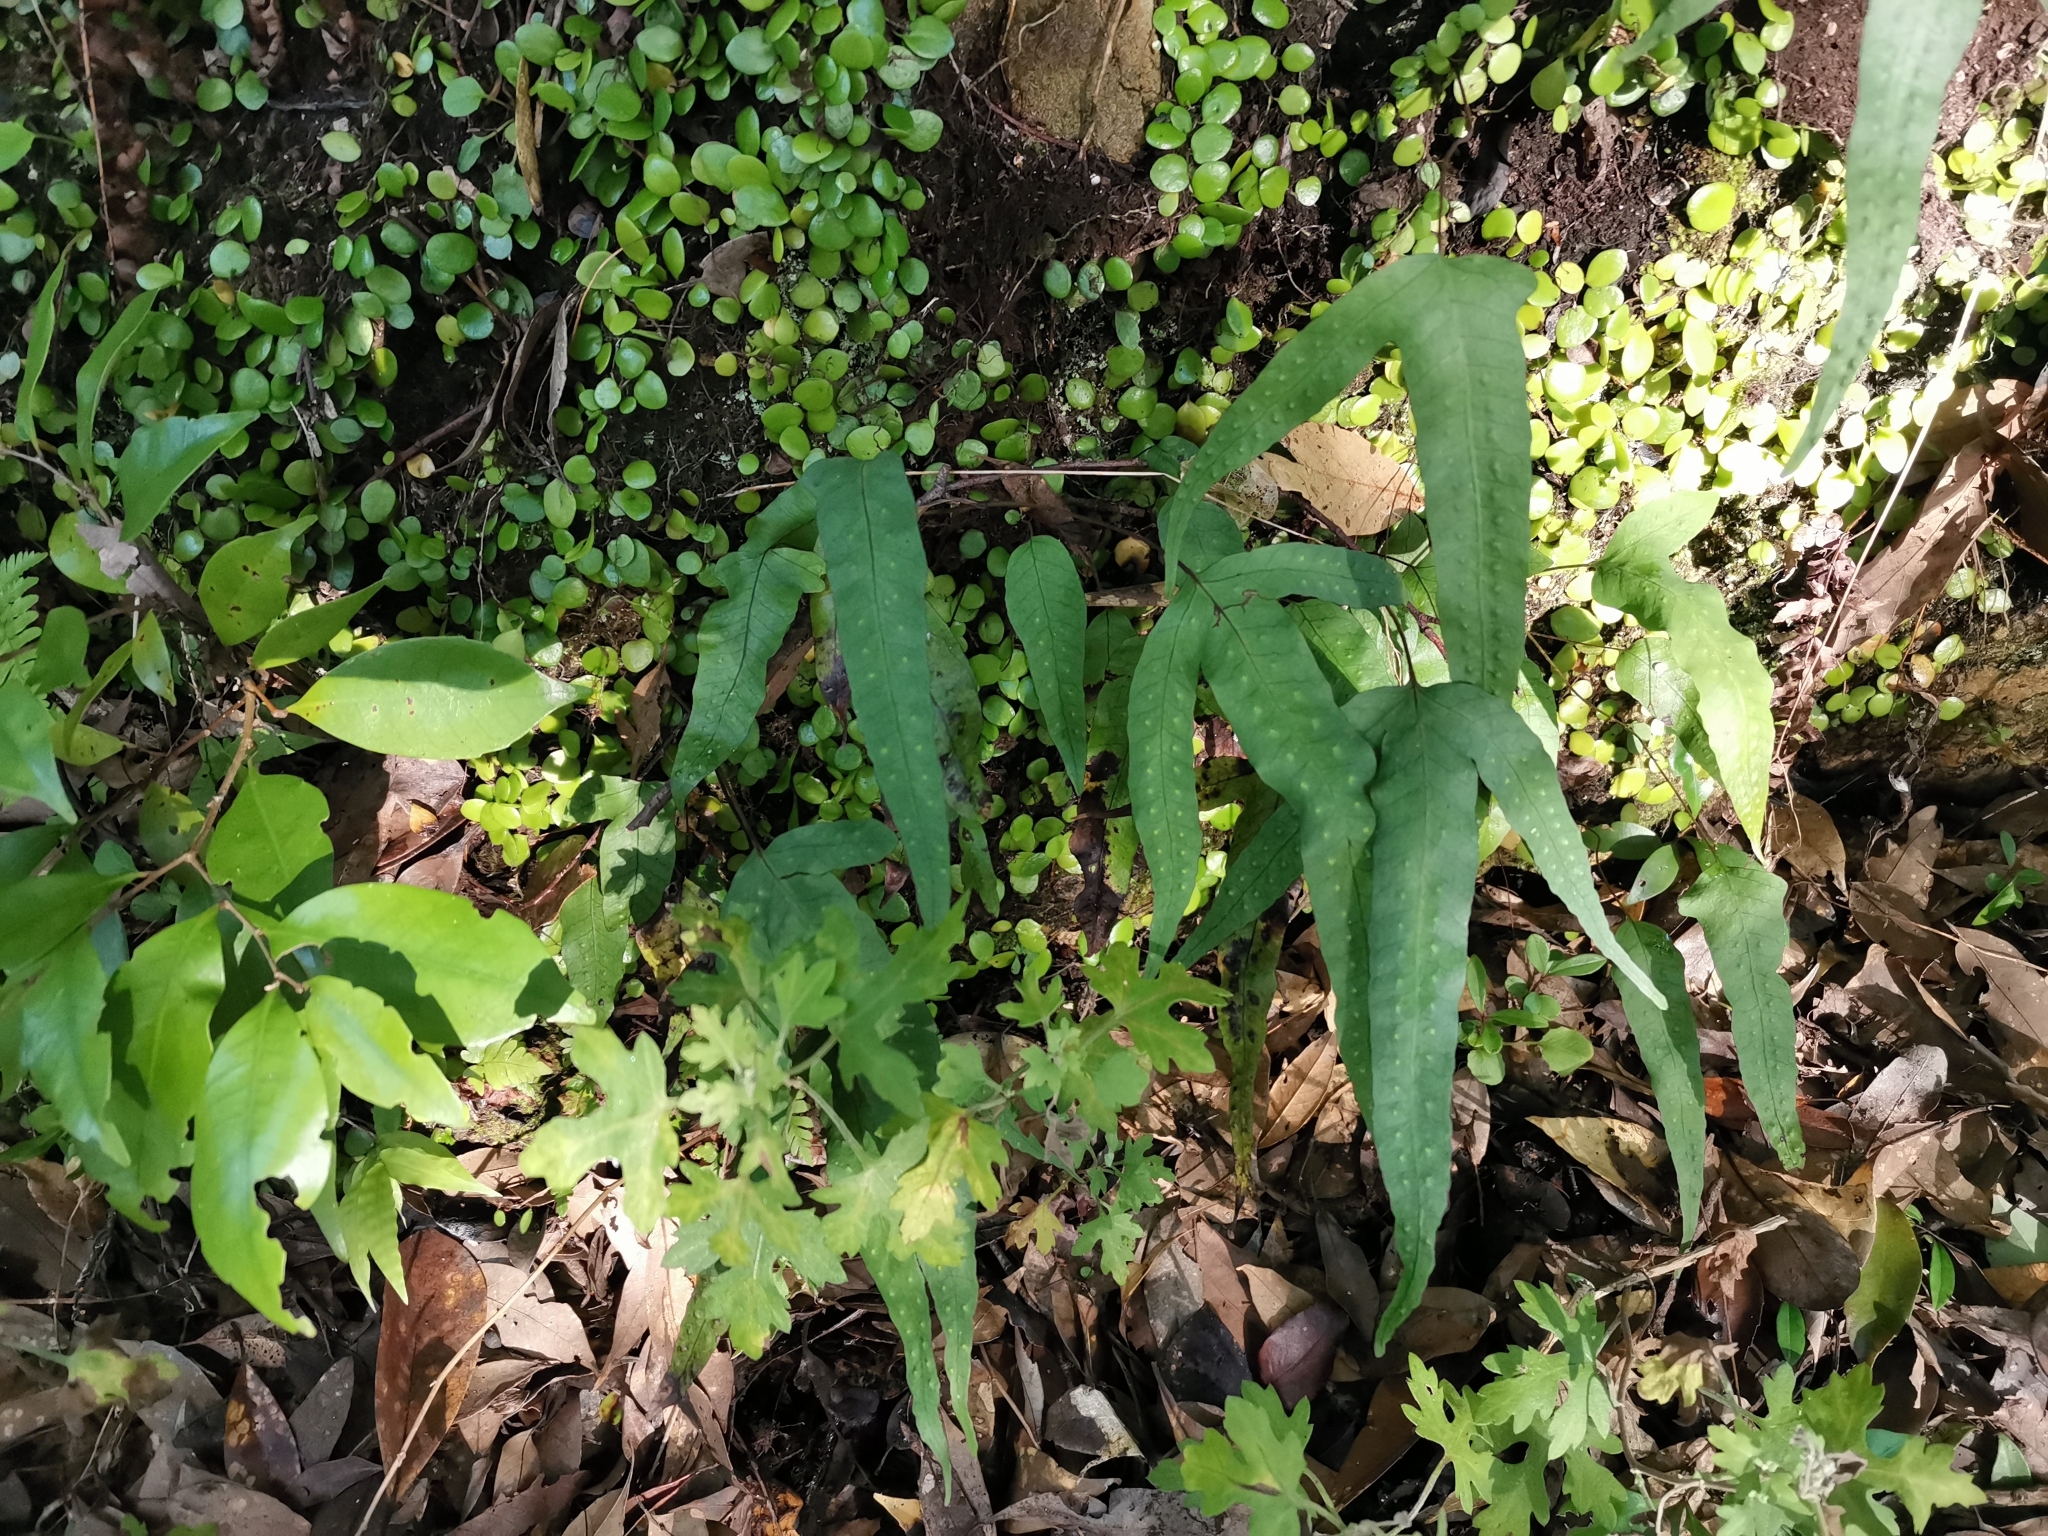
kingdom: Plantae
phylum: Tracheophyta
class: Polypodiopsida
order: Polypodiales
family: Polypodiaceae
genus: Selliguea
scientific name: Selliguea hastata
